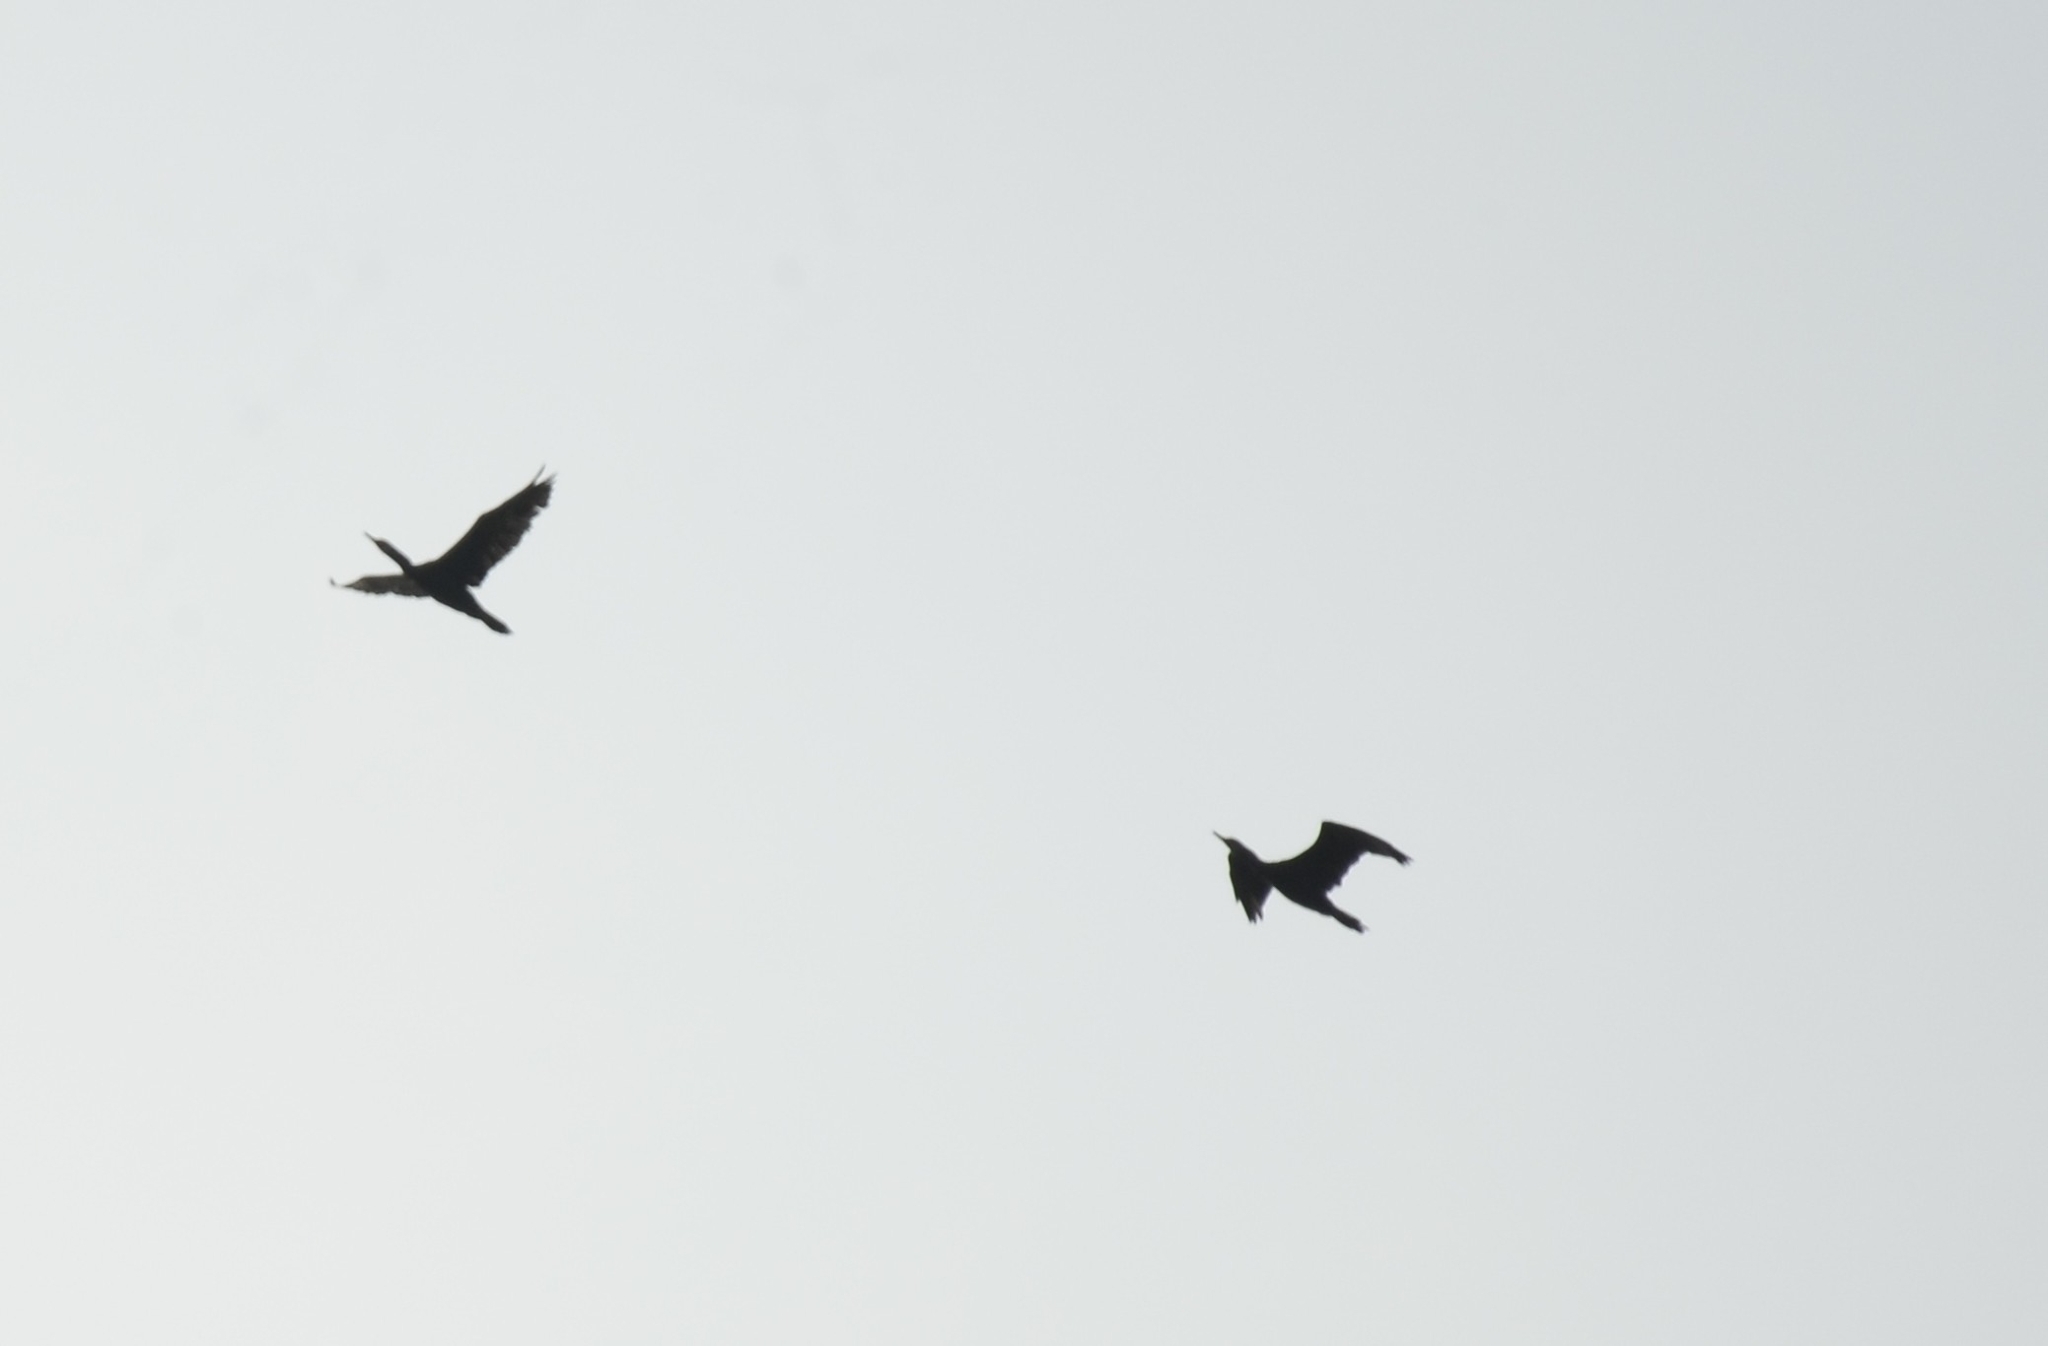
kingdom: Animalia
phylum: Chordata
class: Aves
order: Suliformes
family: Phalacrocoracidae
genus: Phalacrocorax
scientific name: Phalacrocorax fuscicollis
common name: Indian cormorant
